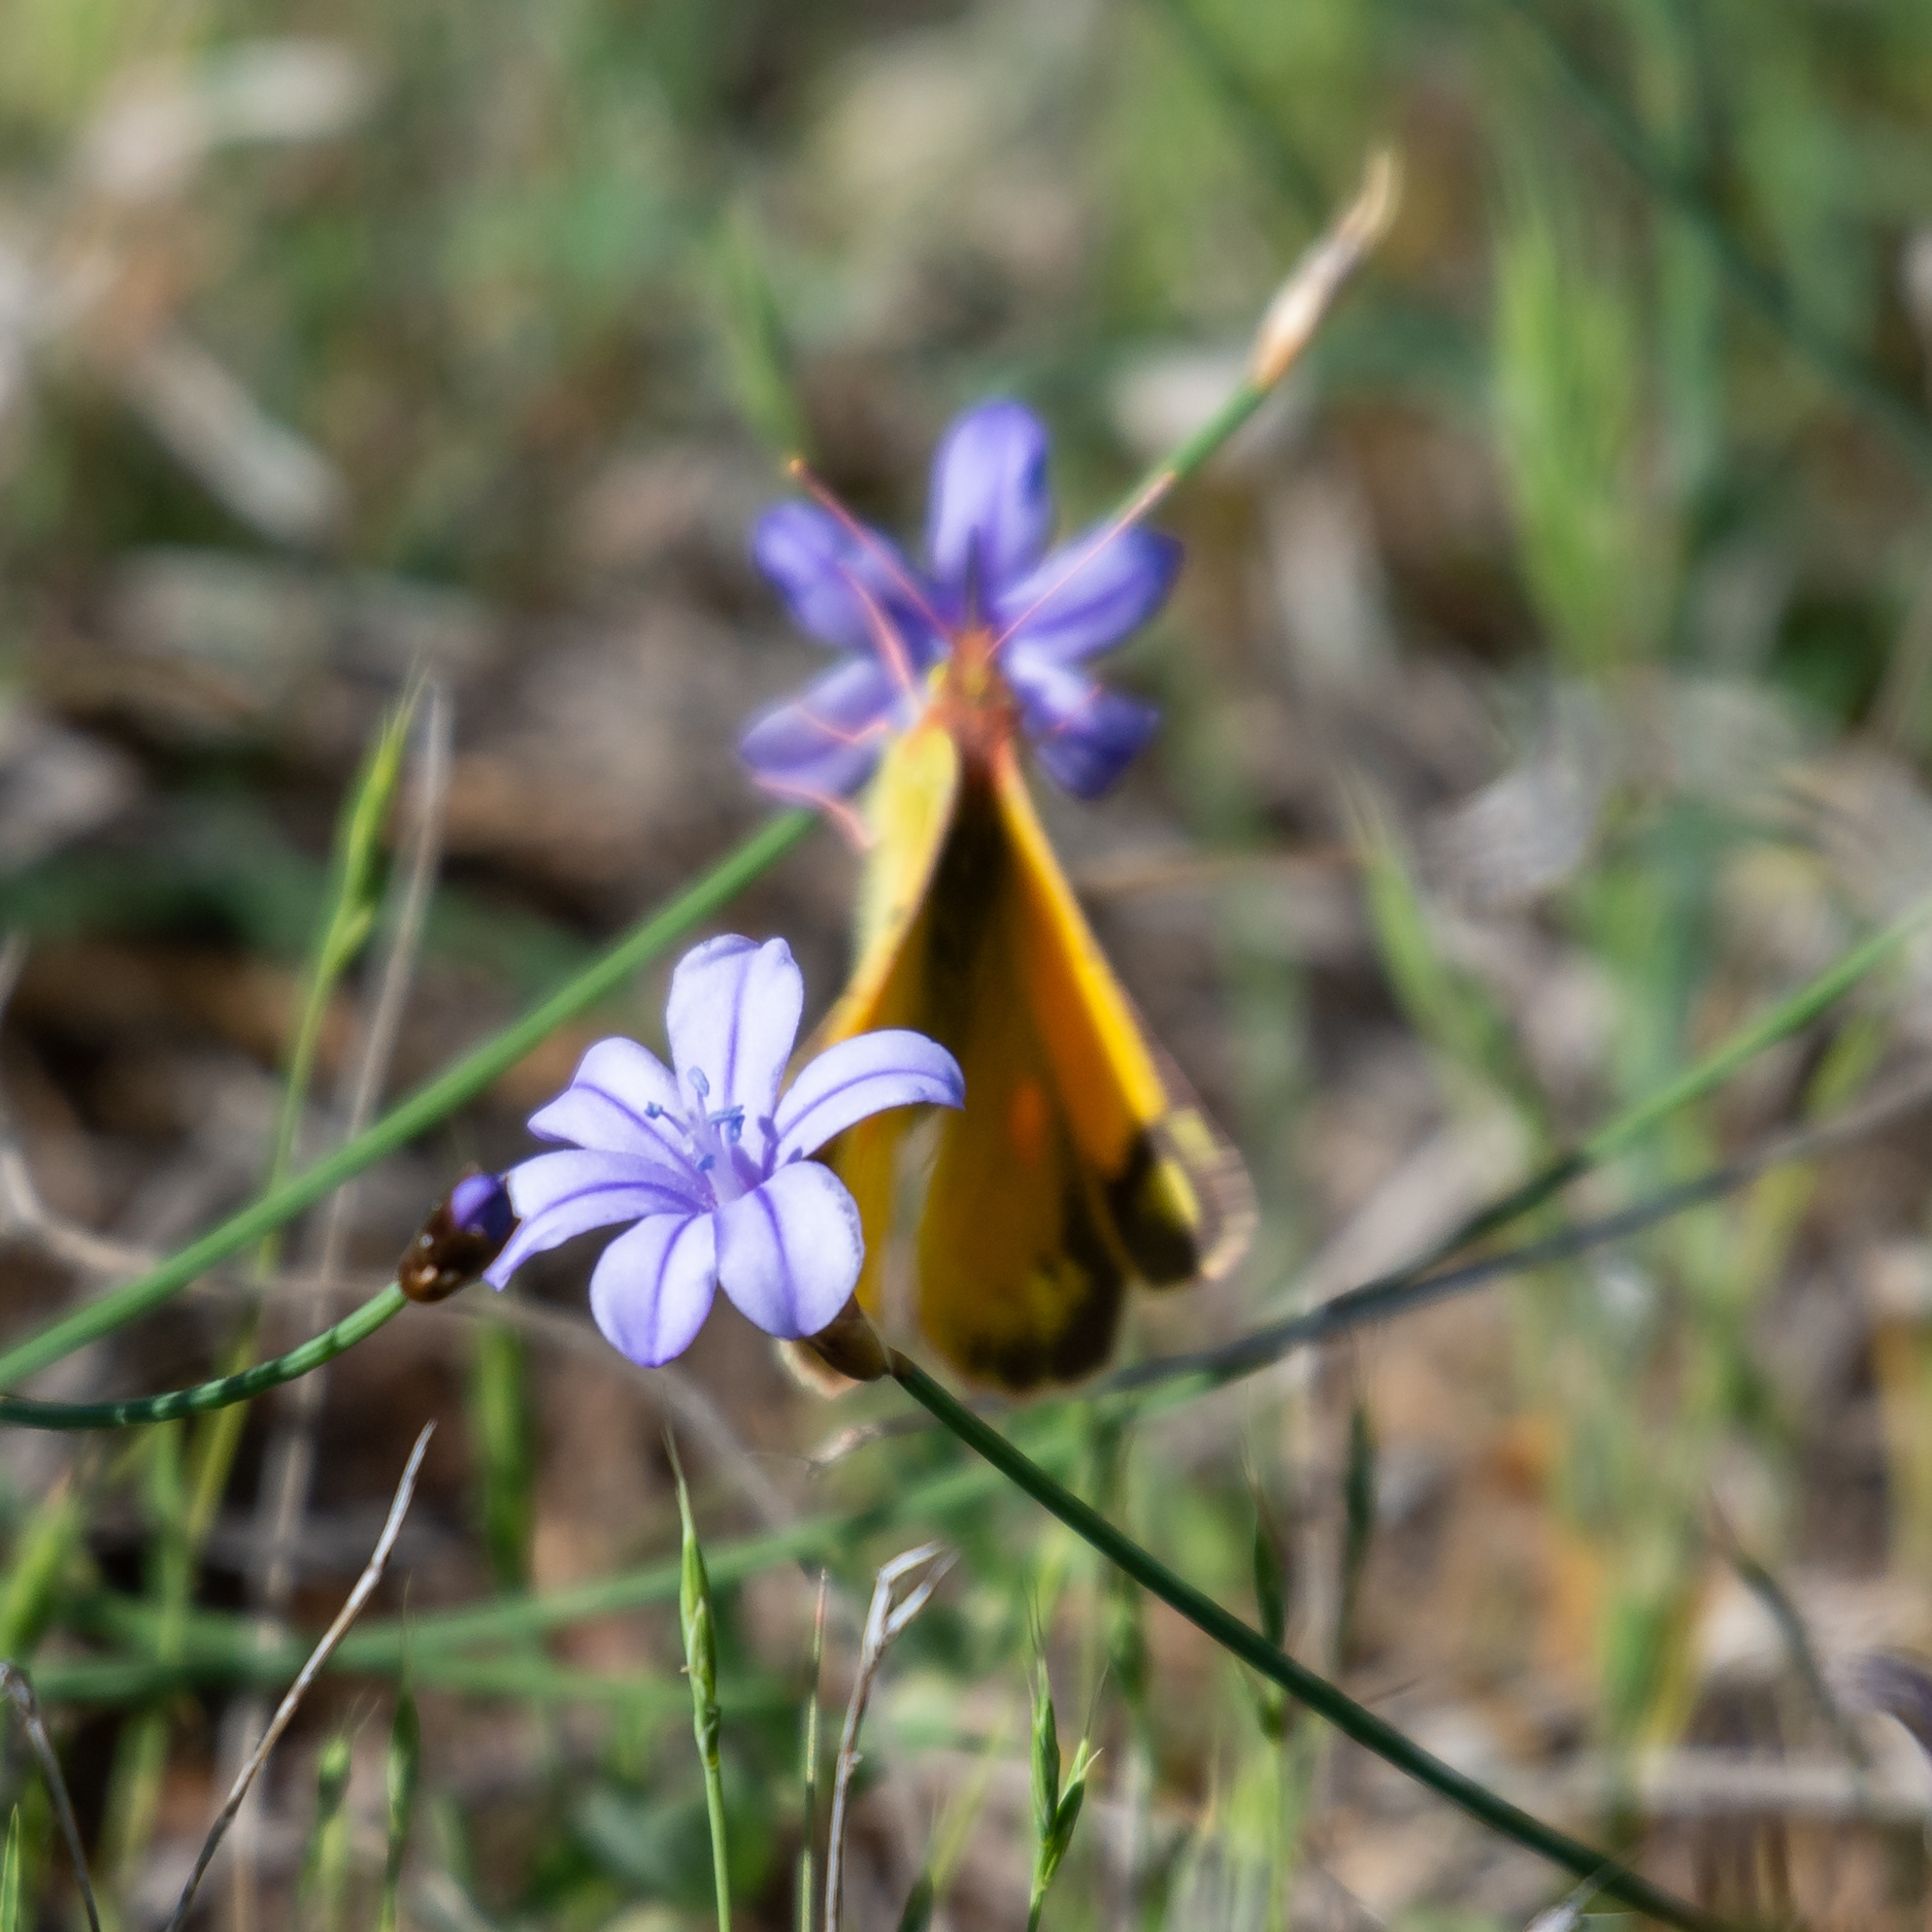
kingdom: Animalia
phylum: Arthropoda
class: Insecta
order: Lepidoptera
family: Pieridae
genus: Colias
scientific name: Colias croceus
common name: Clouded yellow
